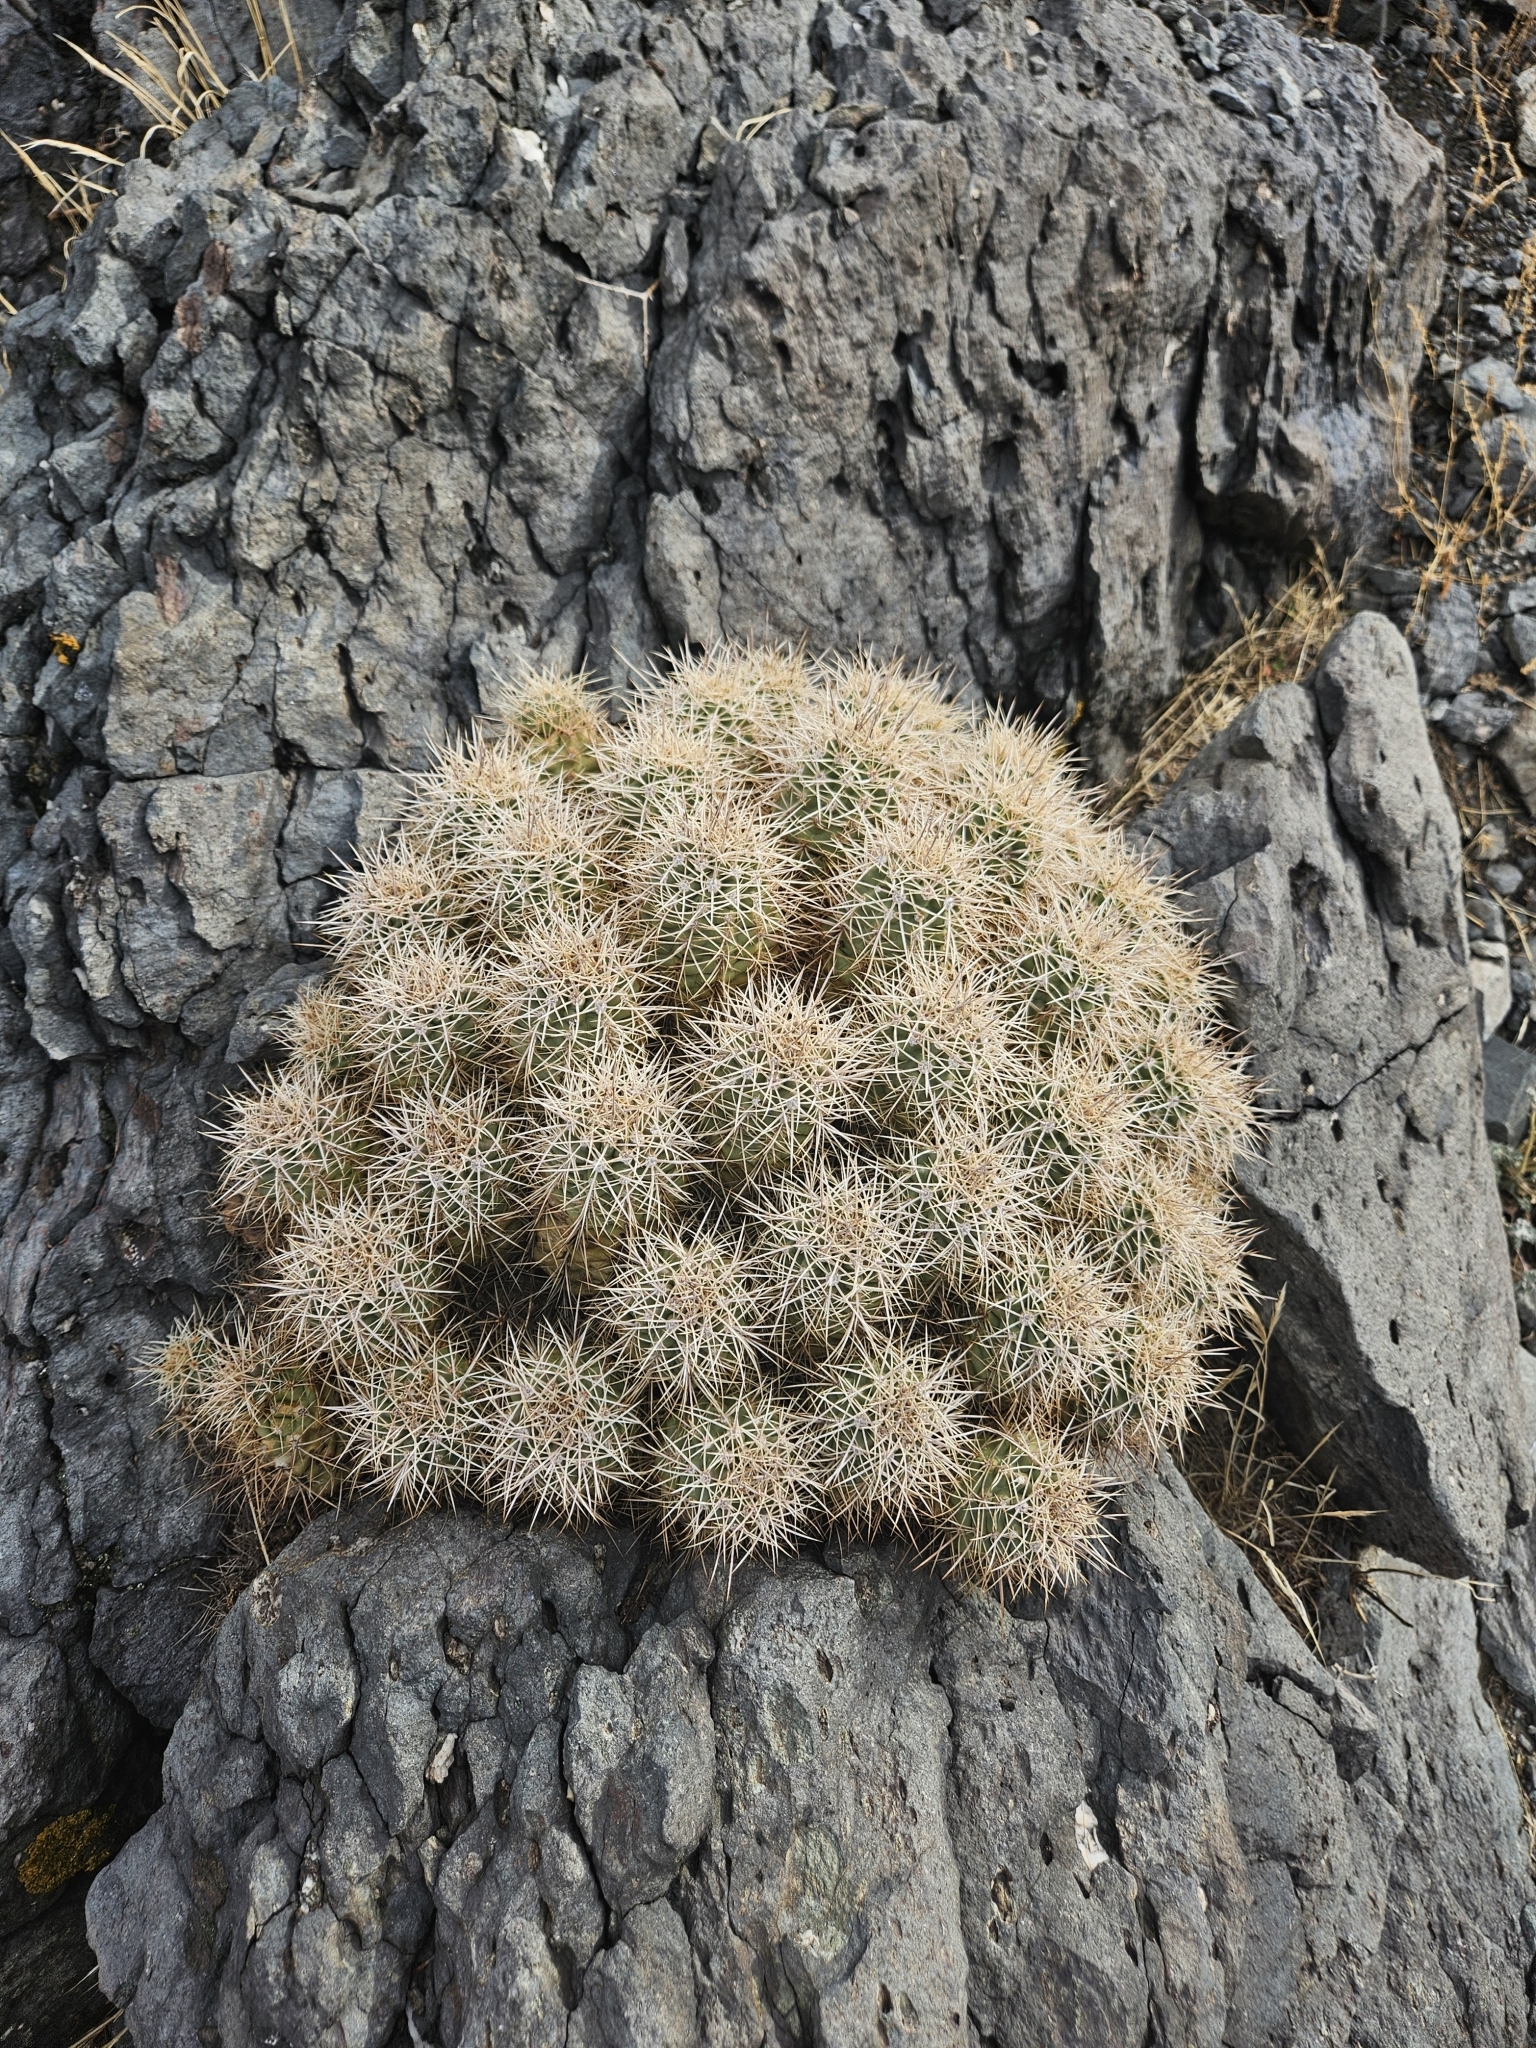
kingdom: Plantae
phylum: Tracheophyta
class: Magnoliopsida
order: Caryophyllales
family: Cactaceae
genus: Echinocereus
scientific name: Echinocereus triglochidiatus
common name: Claretcup hedgehog
